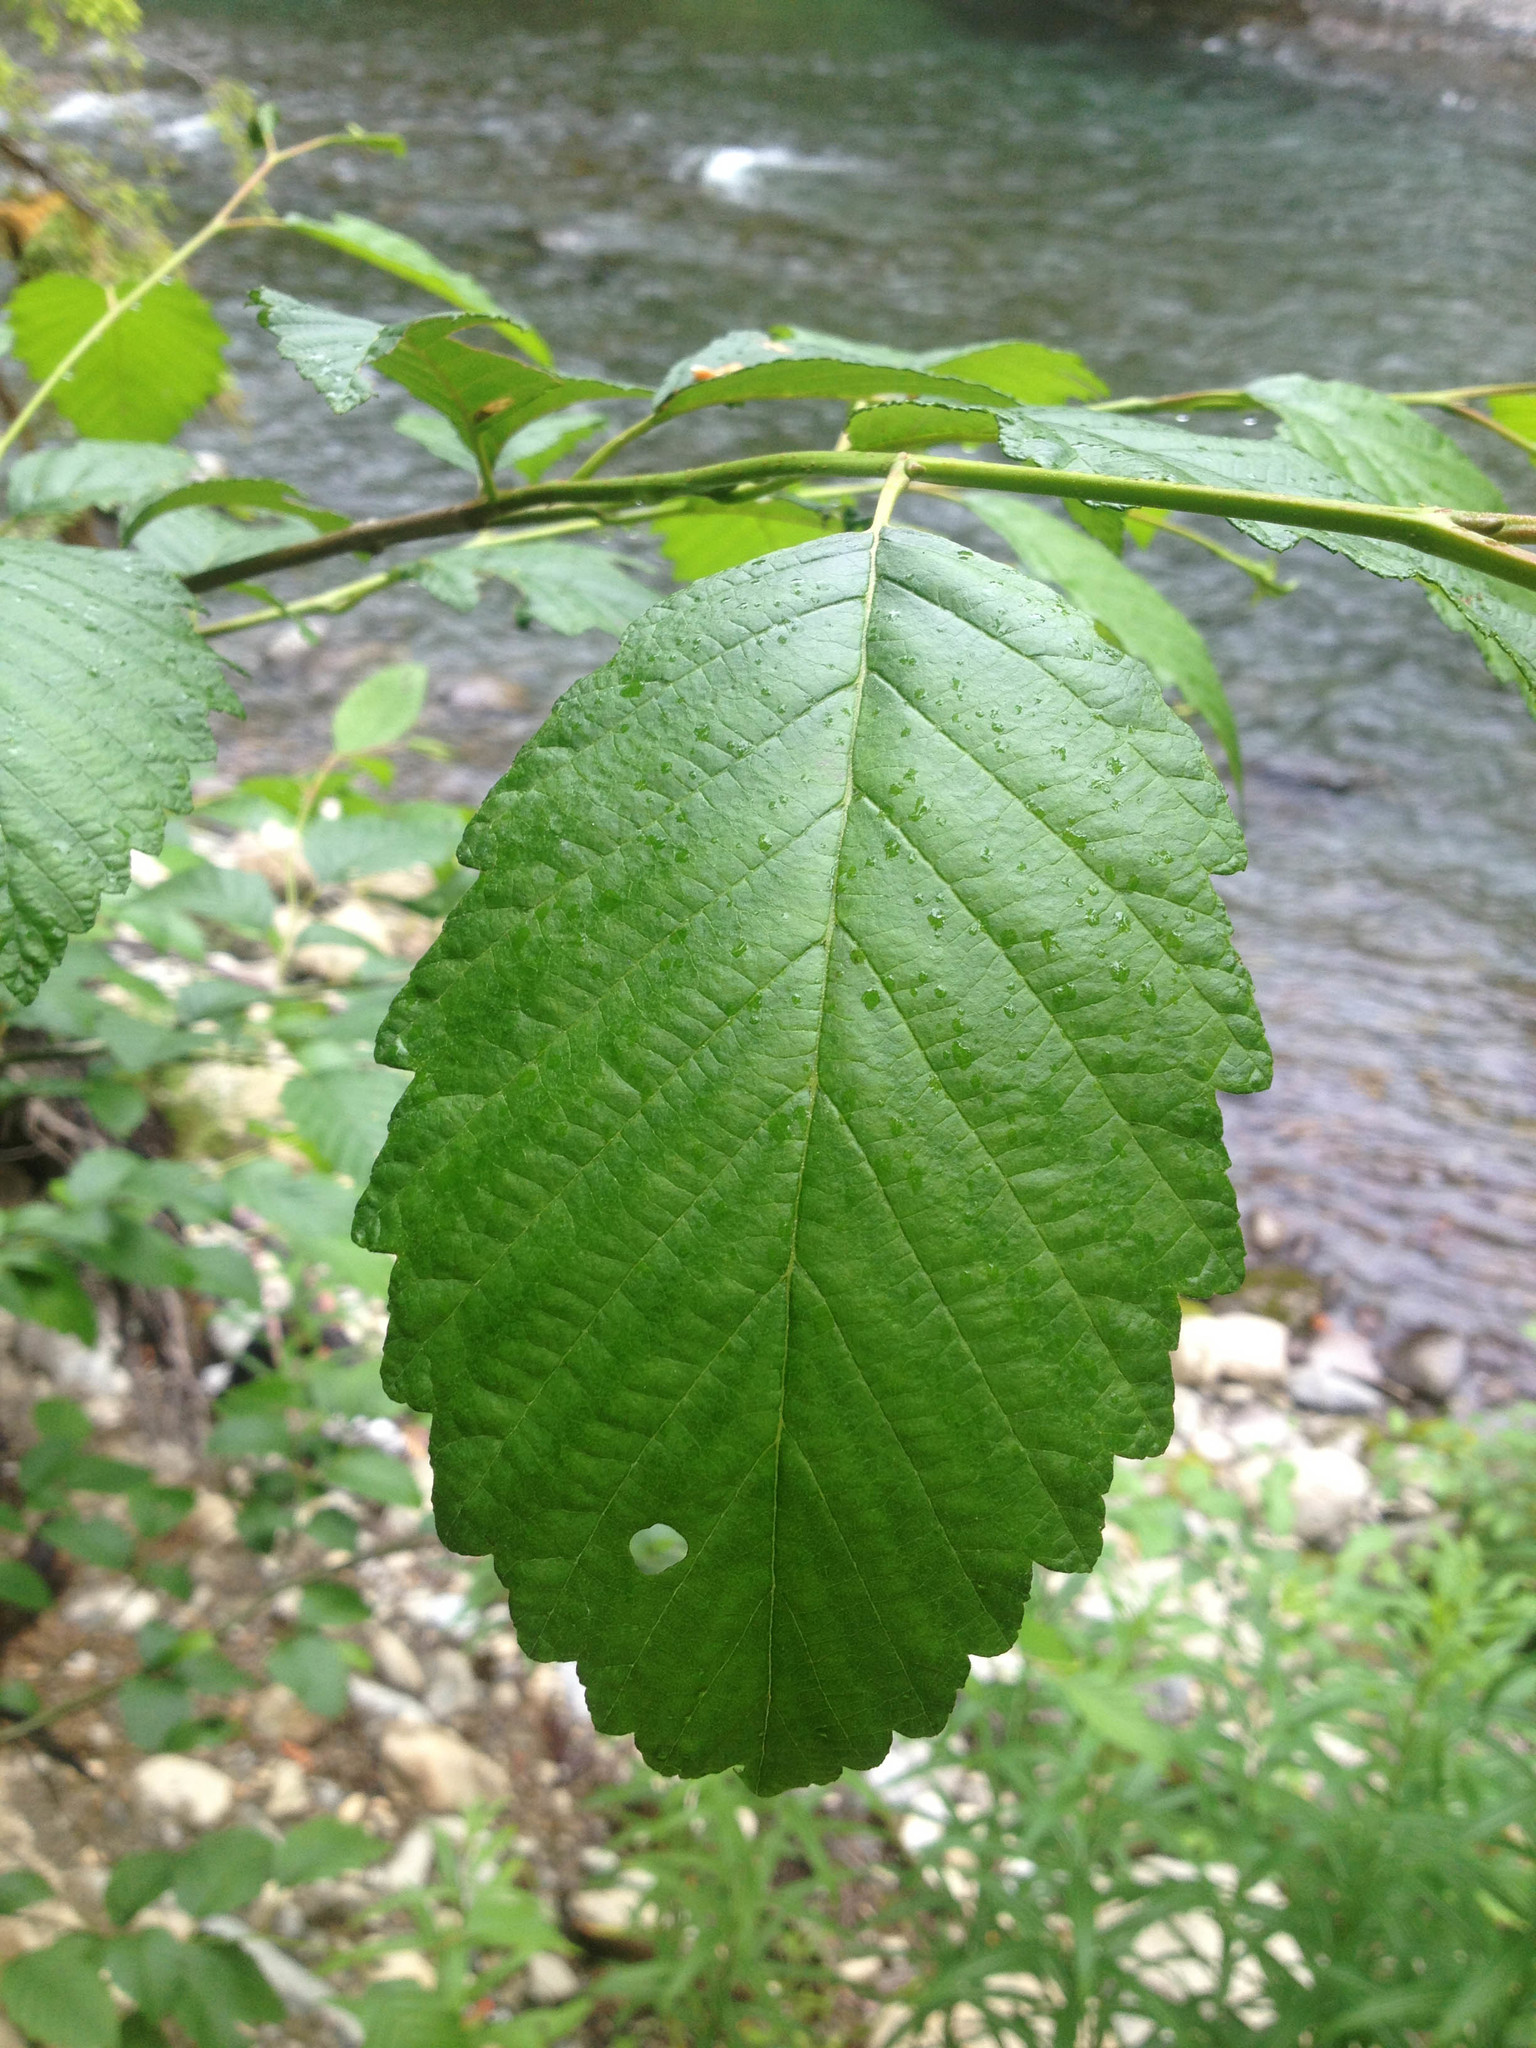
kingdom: Plantae
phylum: Tracheophyta
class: Magnoliopsida
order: Fagales
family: Betulaceae
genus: Alnus
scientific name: Alnus rubra
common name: Red alder
